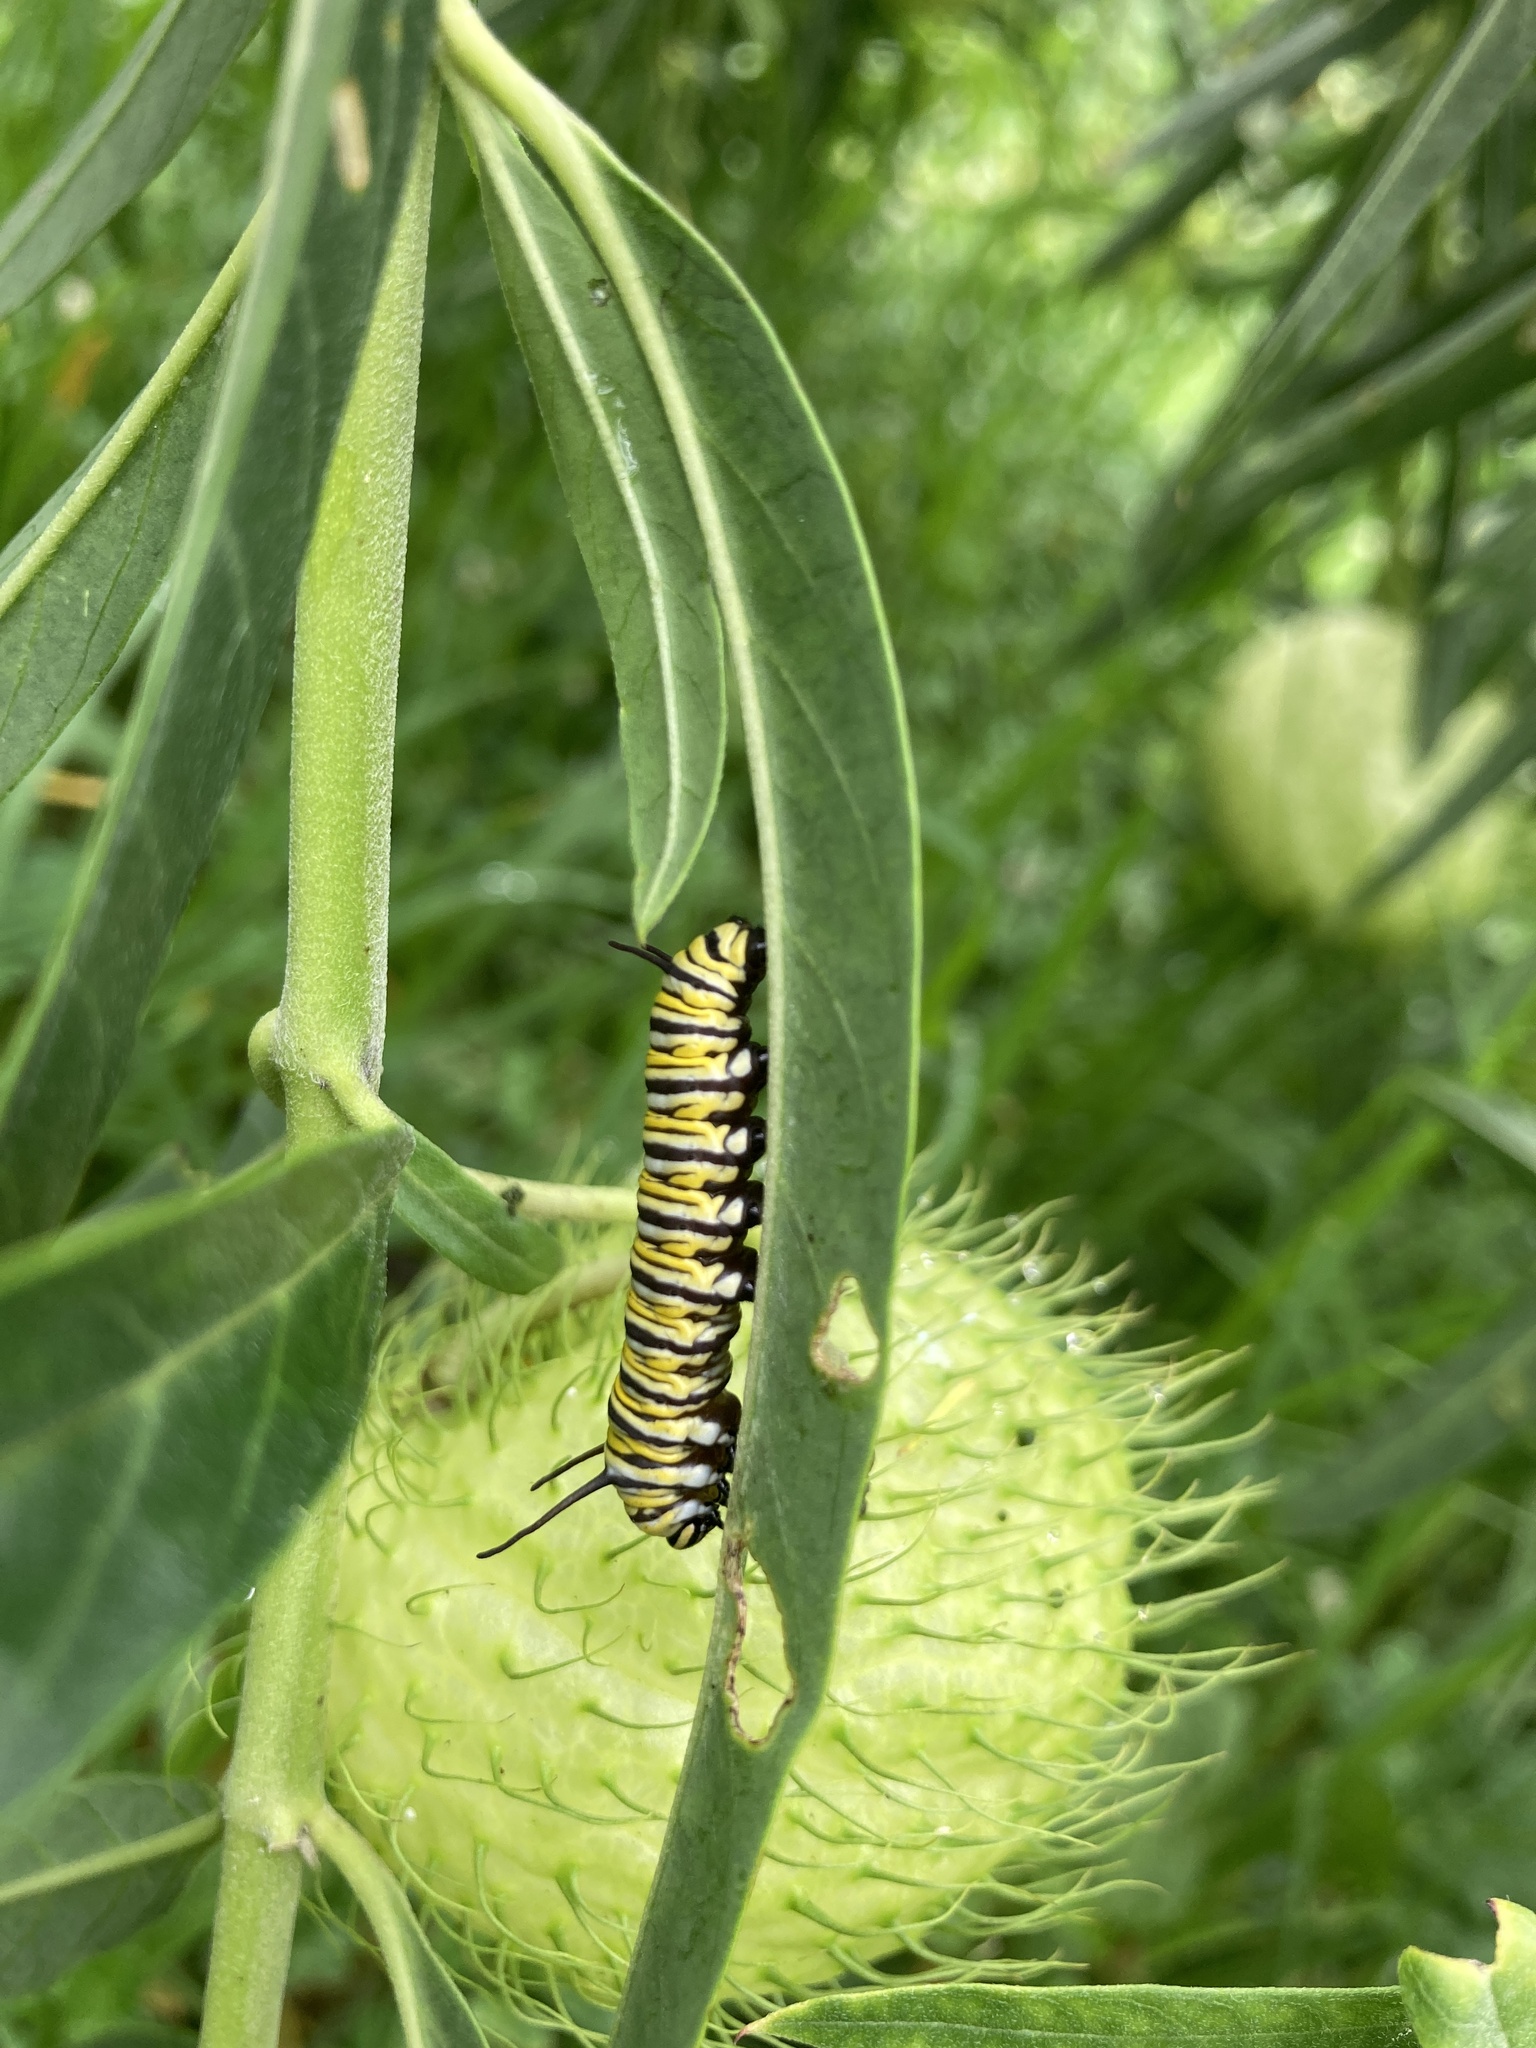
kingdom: Animalia
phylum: Arthropoda
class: Insecta
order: Lepidoptera
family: Nymphalidae
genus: Danaus
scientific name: Danaus plexippus
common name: Monarch
